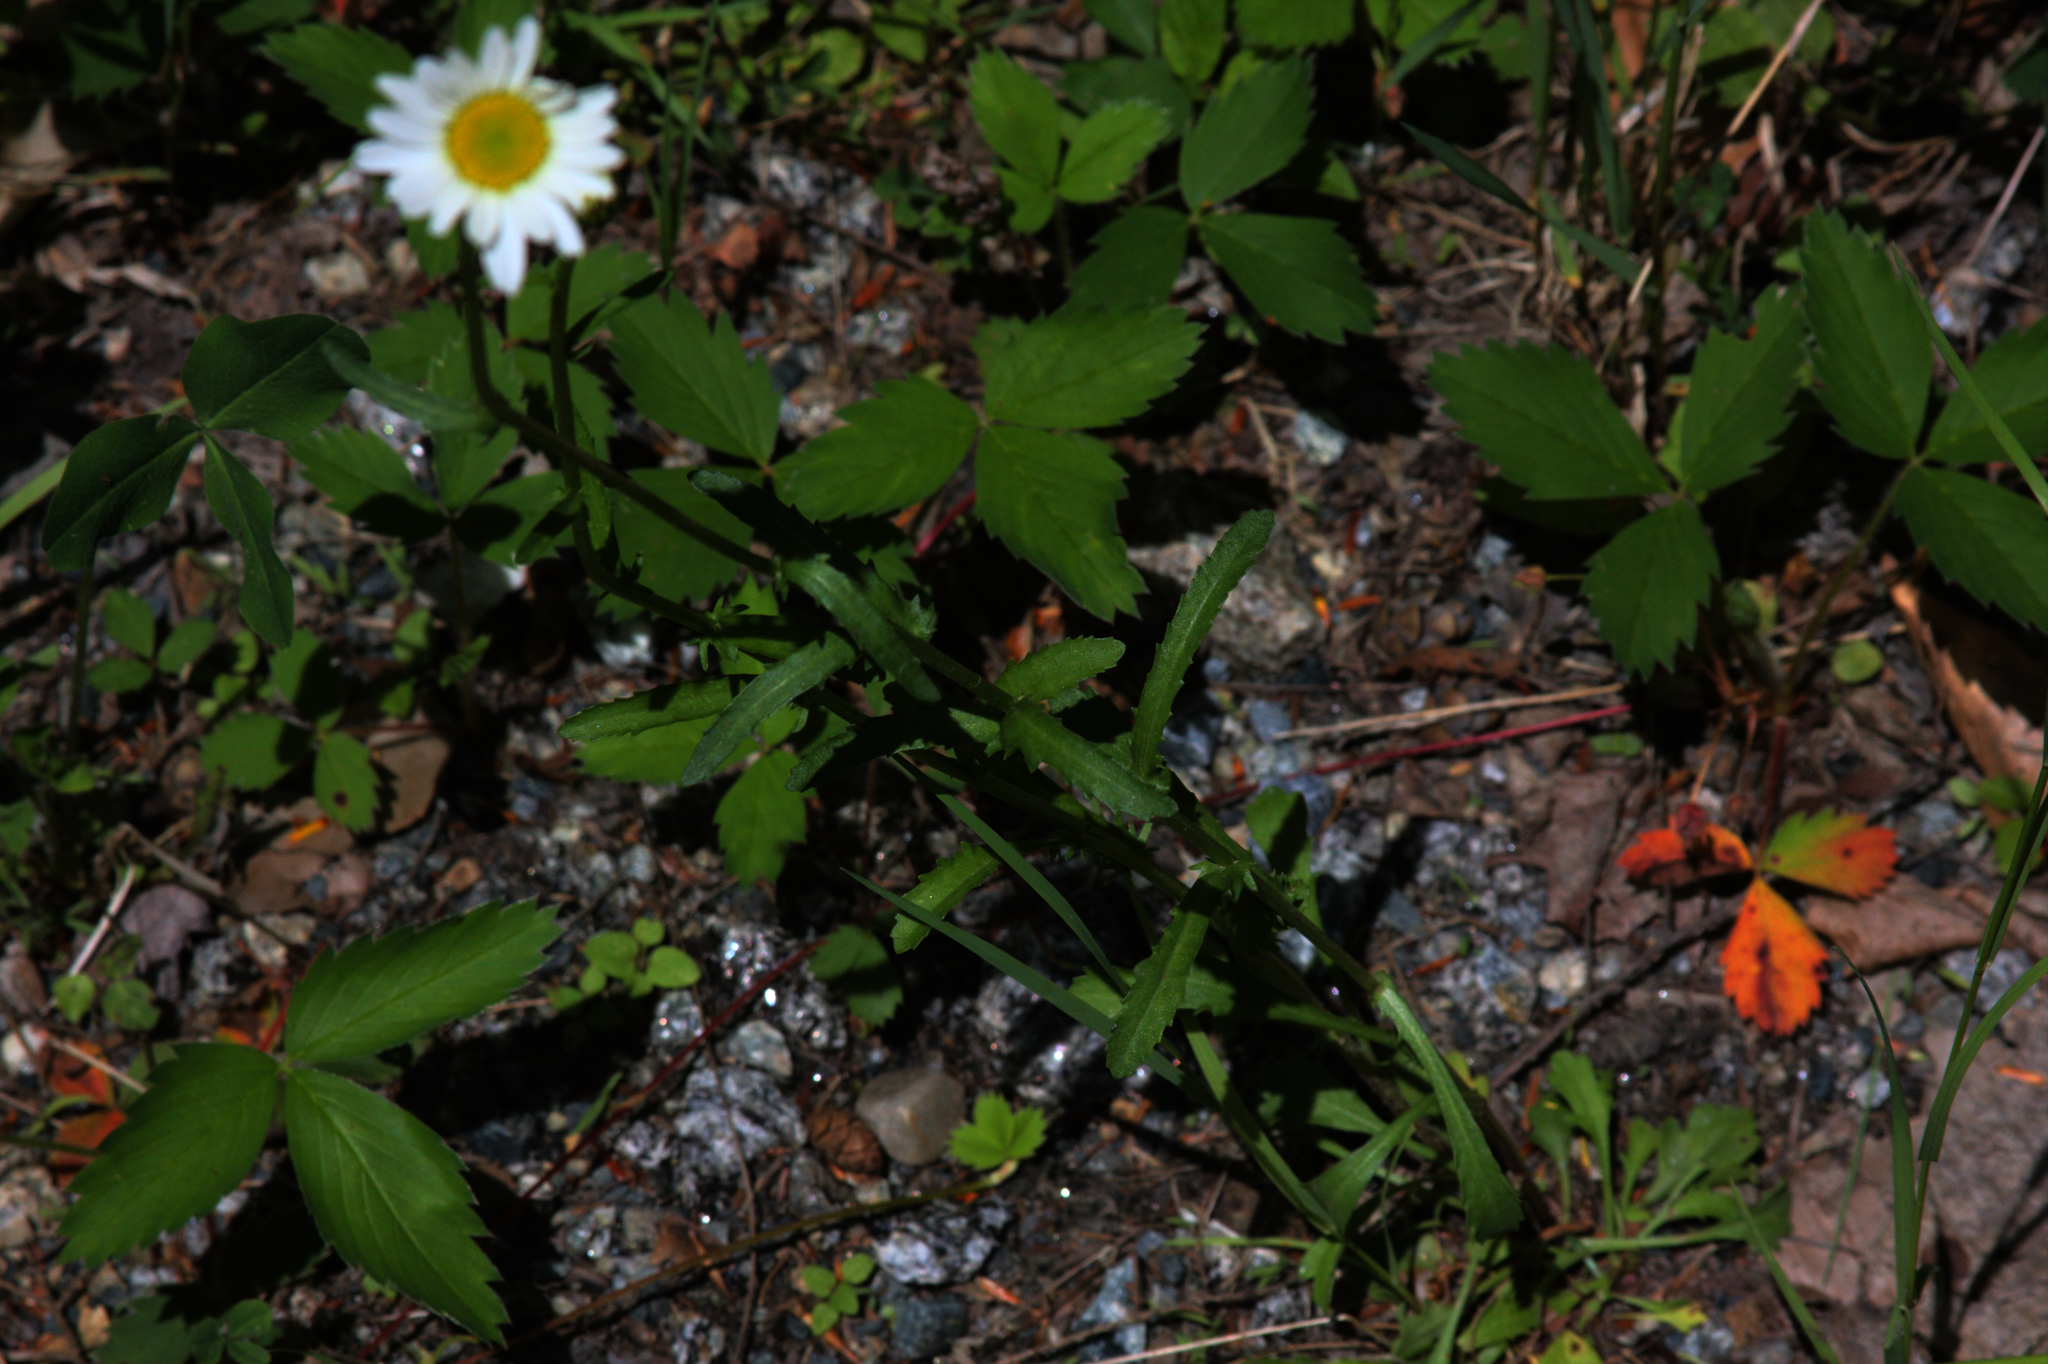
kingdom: Plantae
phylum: Tracheophyta
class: Magnoliopsida
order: Asterales
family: Asteraceae
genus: Leucanthemum
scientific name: Leucanthemum vulgare
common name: Oxeye daisy
